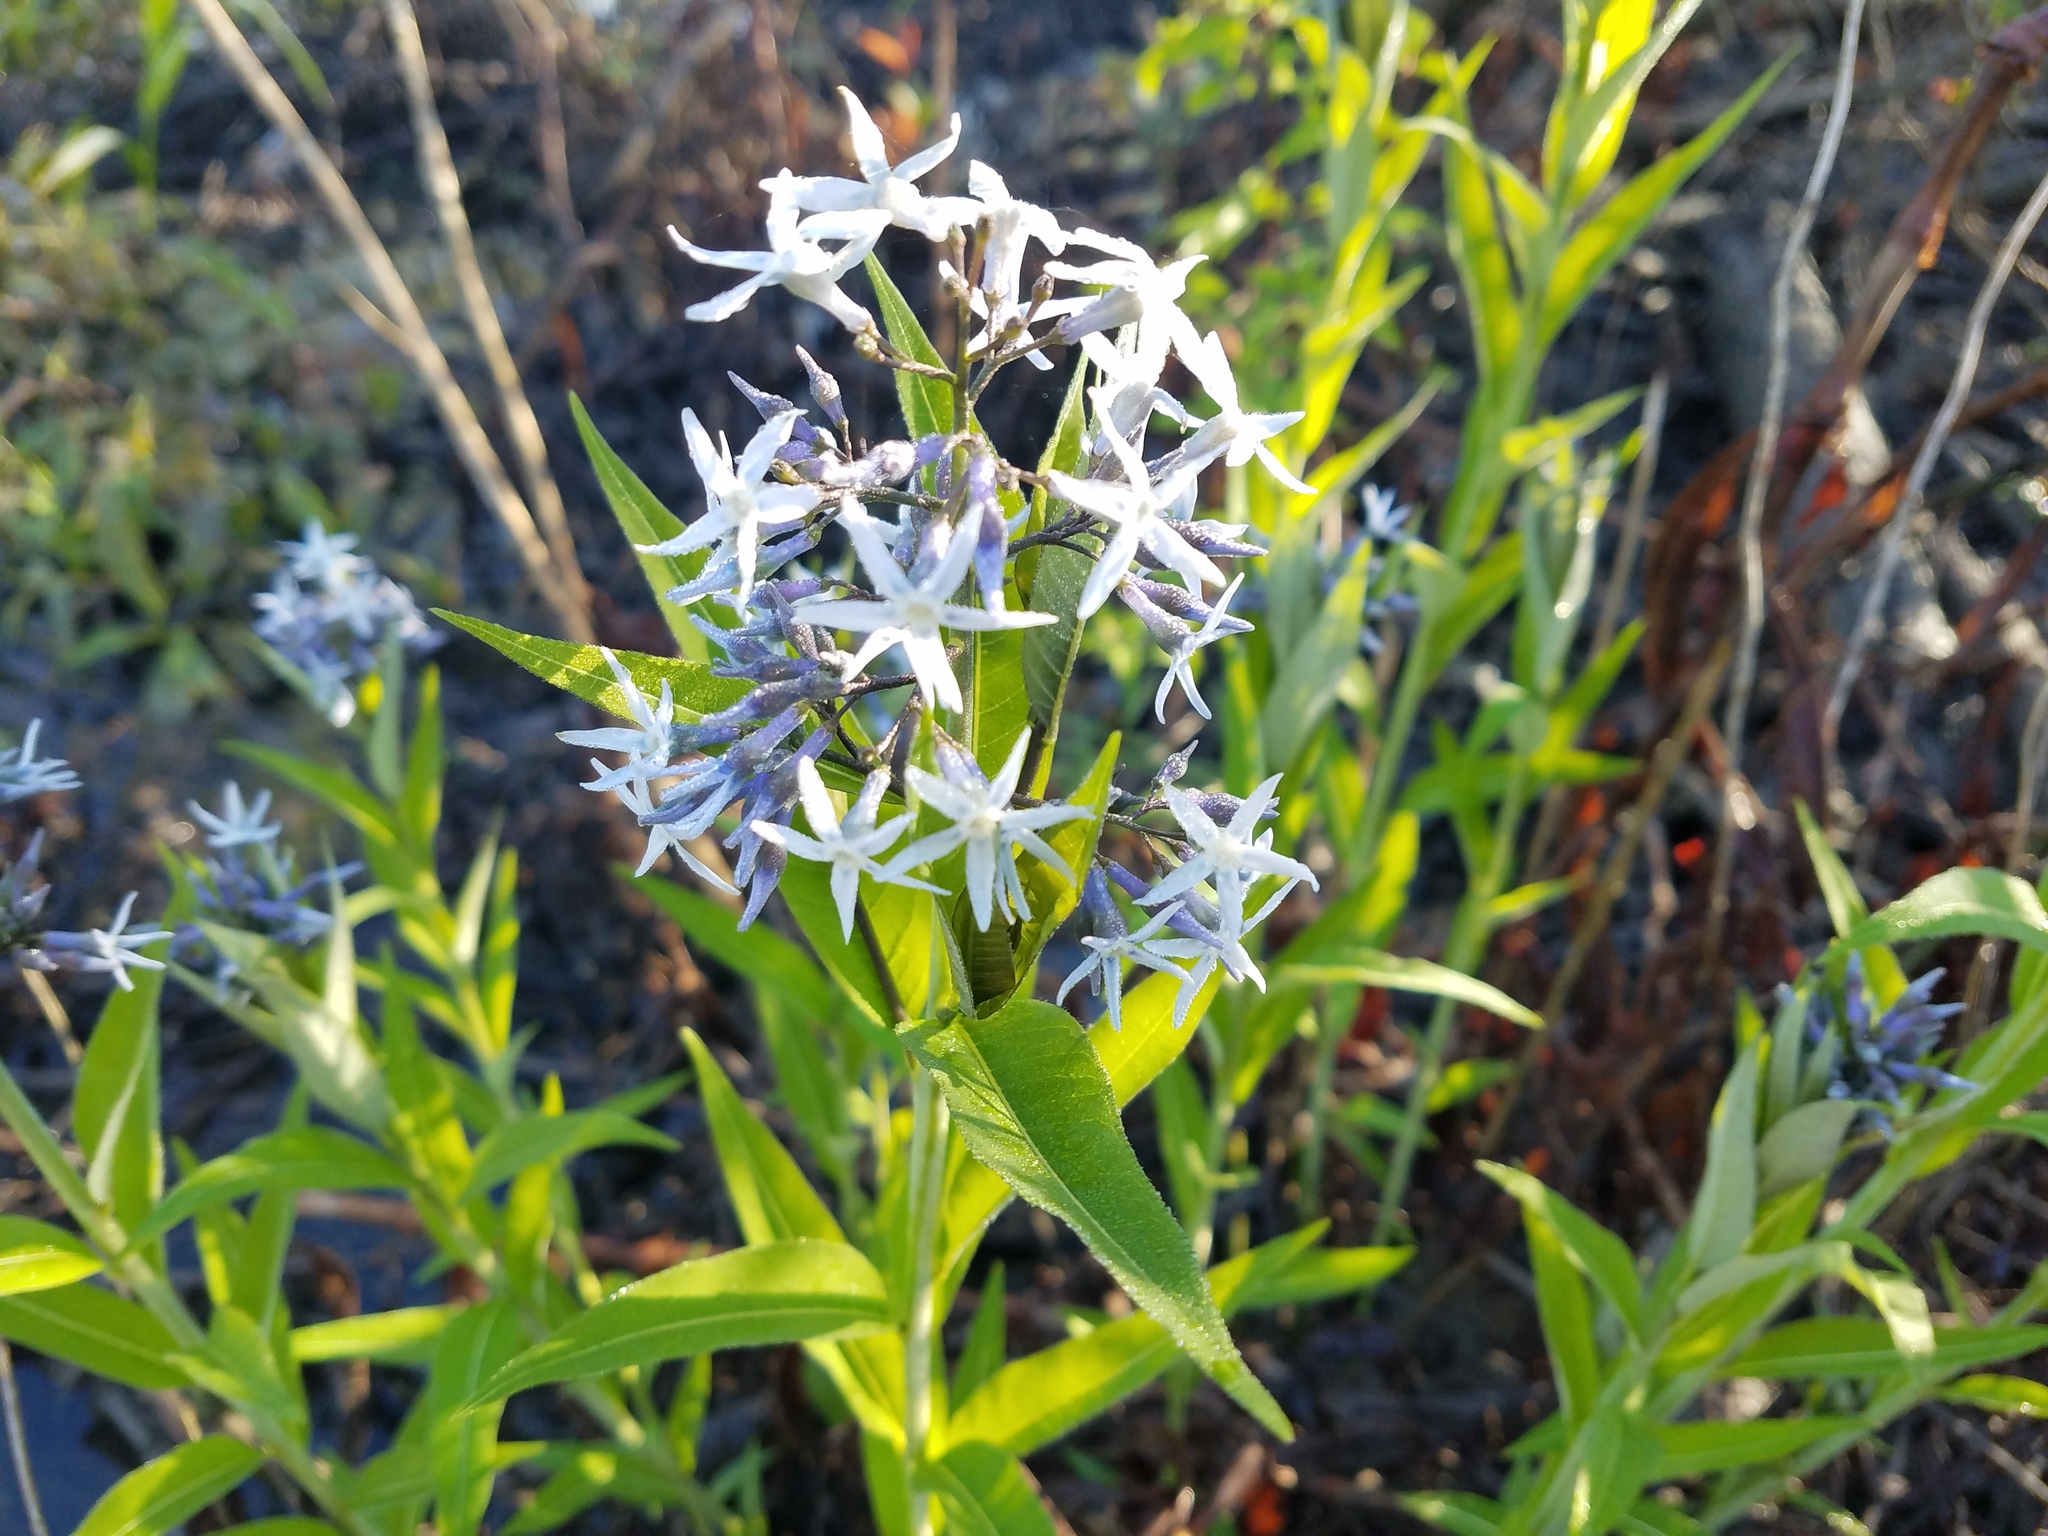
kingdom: Plantae
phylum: Tracheophyta
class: Magnoliopsida
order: Gentianales
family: Apocynaceae
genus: Amsonia
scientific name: Amsonia tabernaemontana
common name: Texas-star
